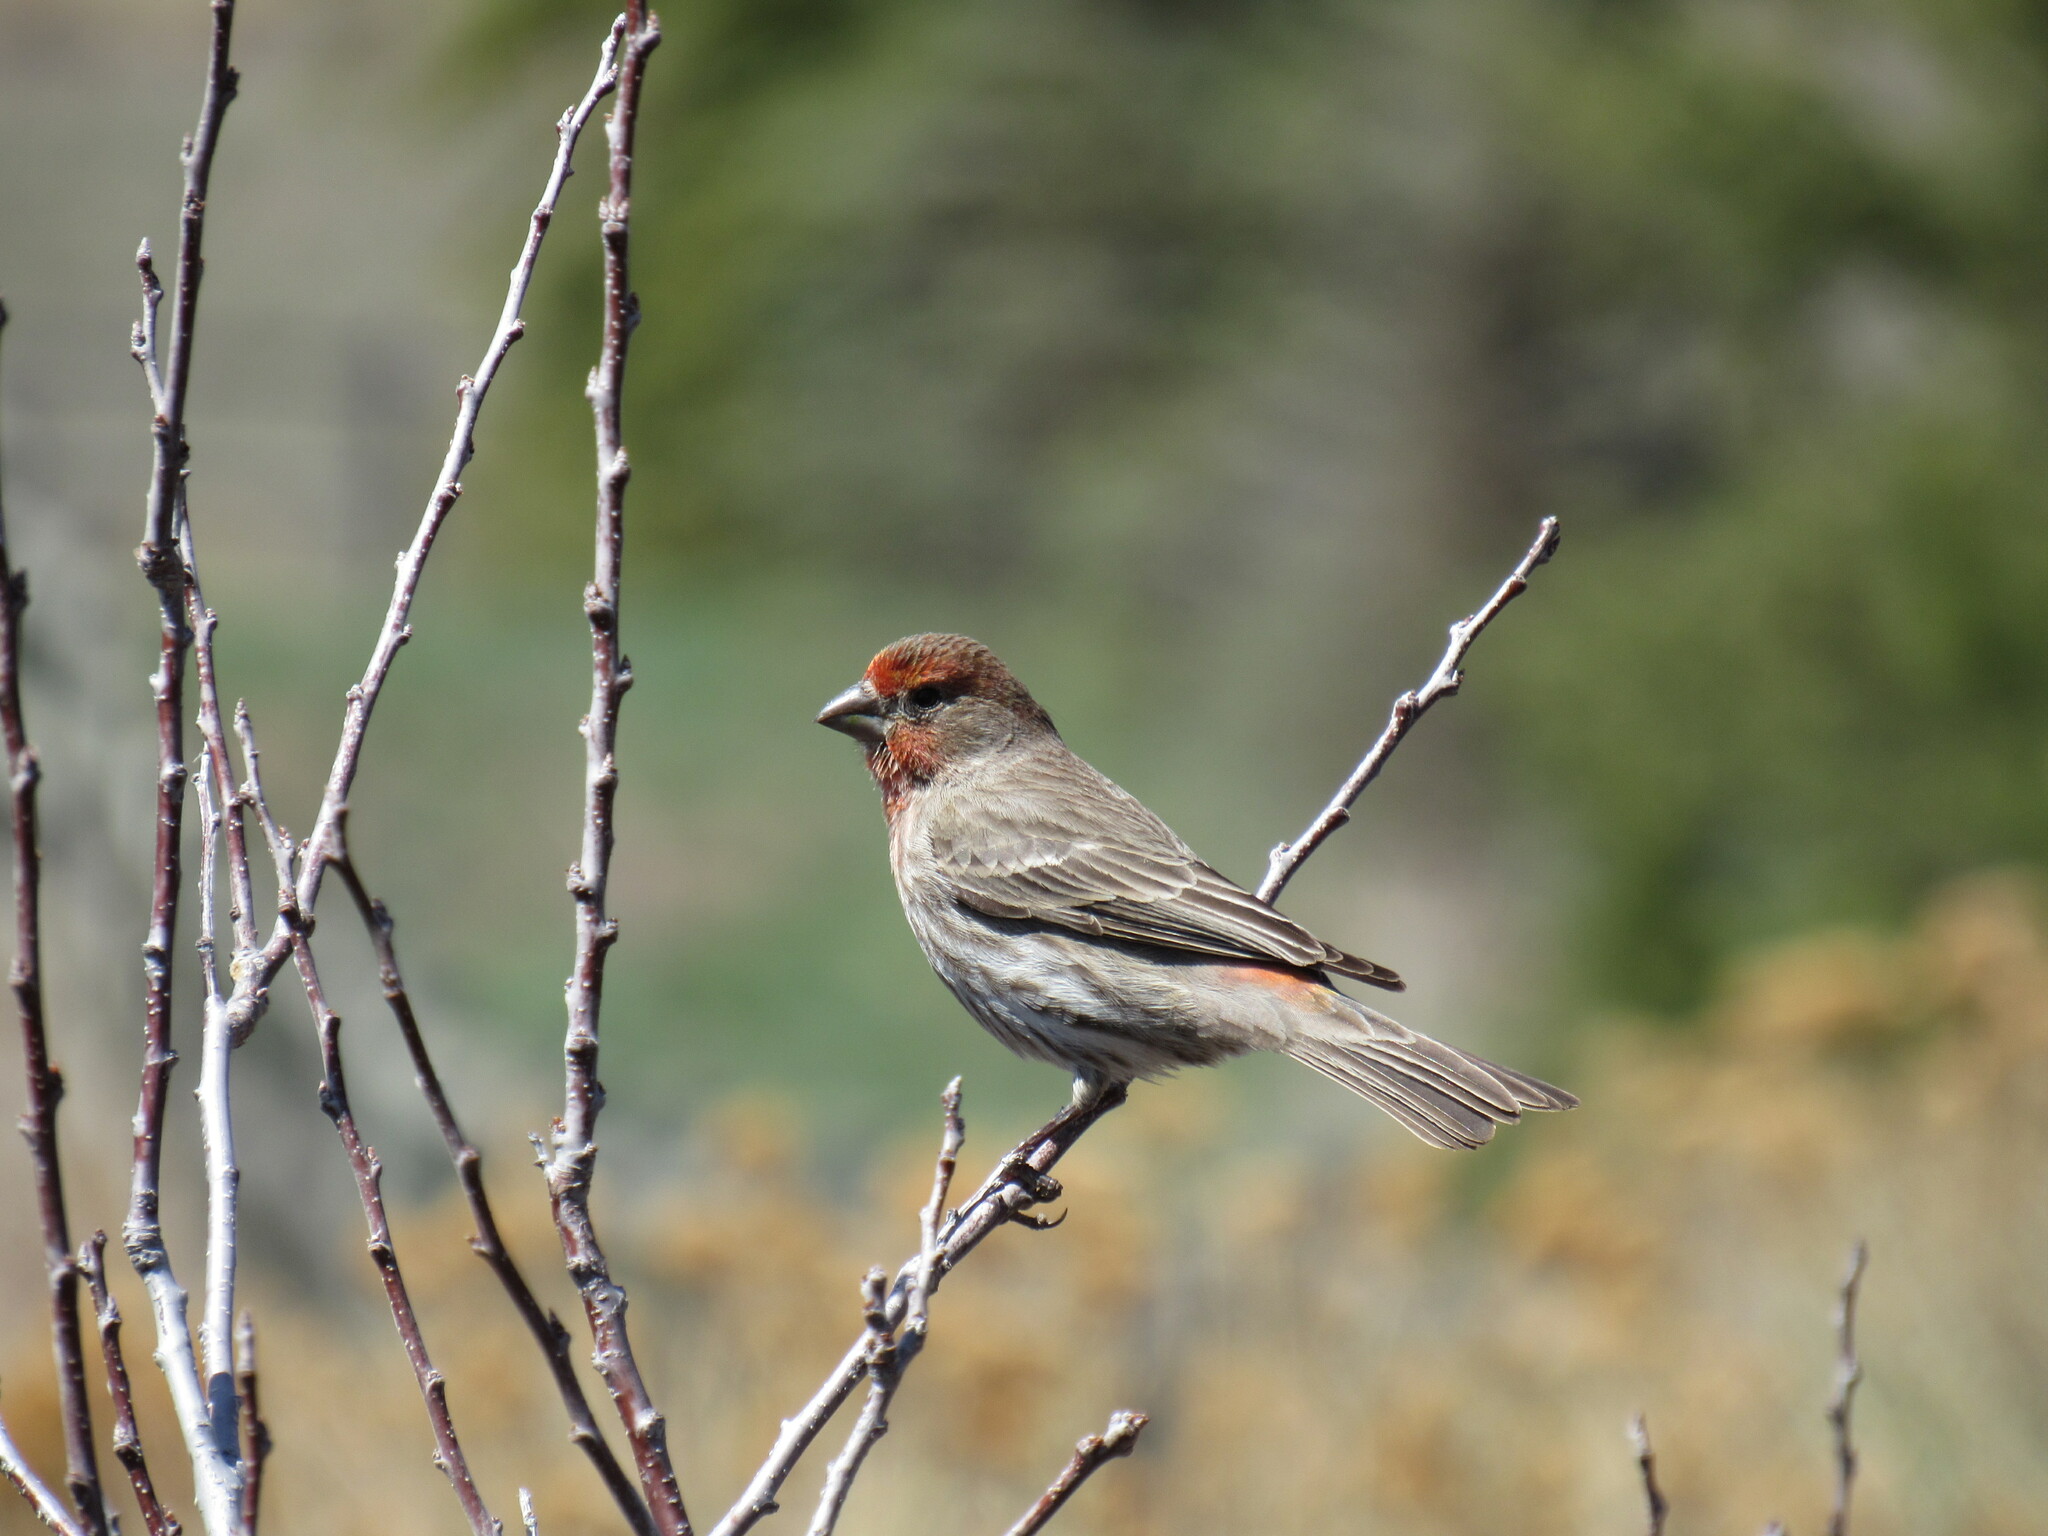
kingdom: Animalia
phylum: Chordata
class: Aves
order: Passeriformes
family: Fringillidae
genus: Haemorhous
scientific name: Haemorhous mexicanus
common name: House finch
